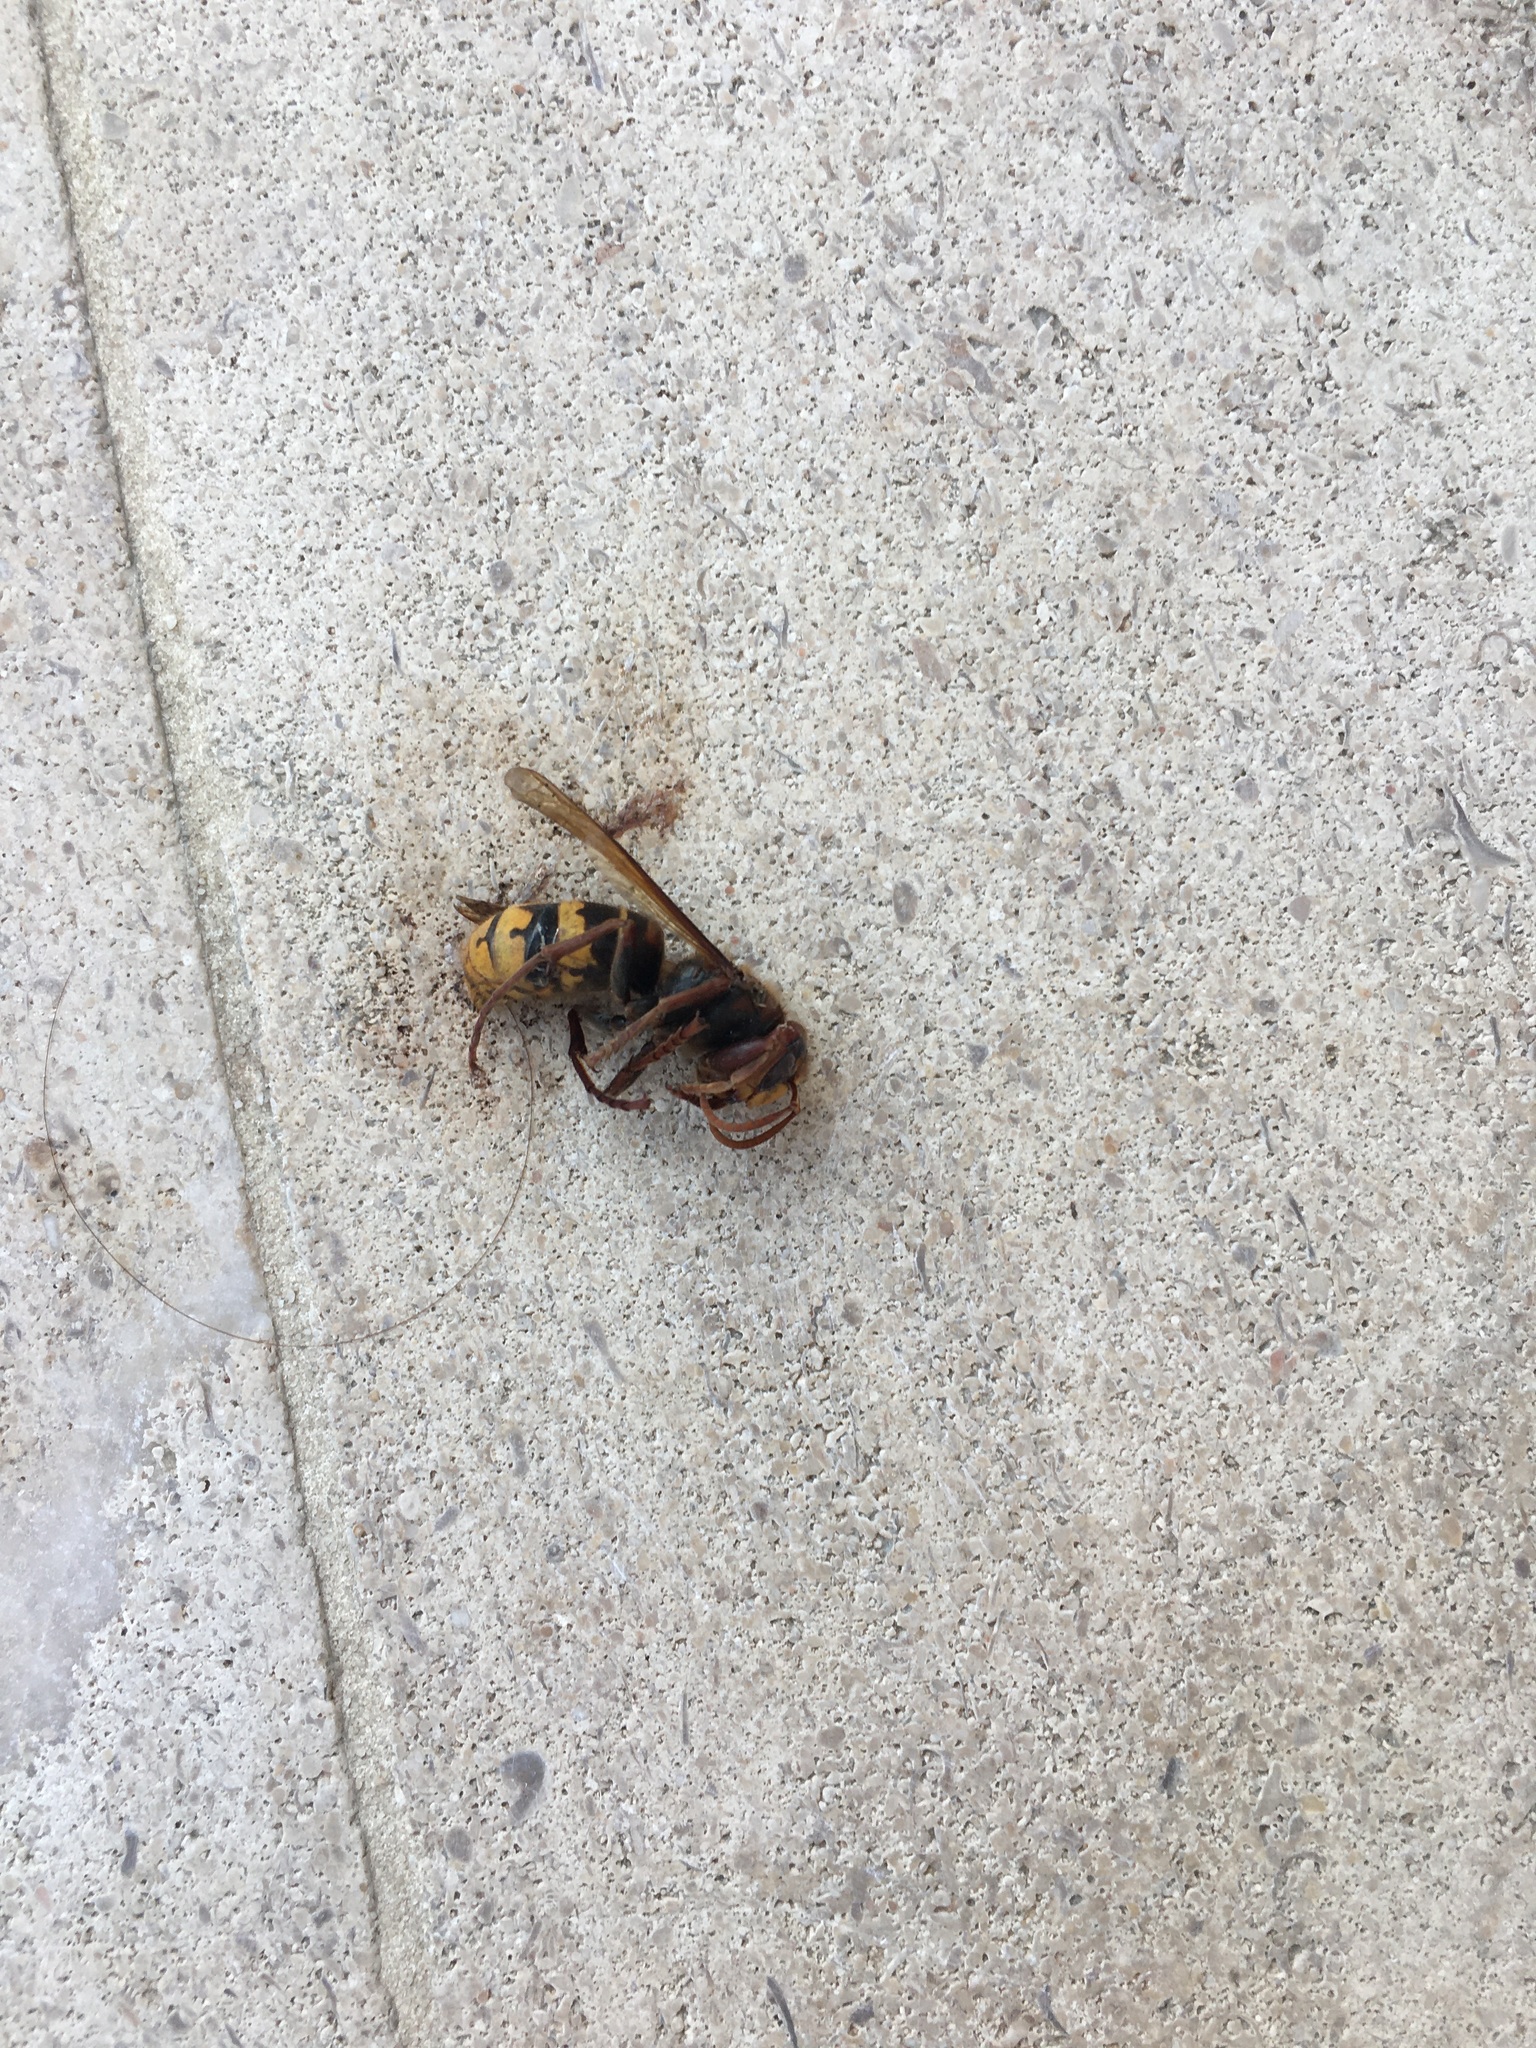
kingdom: Animalia
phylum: Arthropoda
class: Insecta
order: Hymenoptera
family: Vespidae
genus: Vespa
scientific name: Vespa crabro
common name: Hornet
